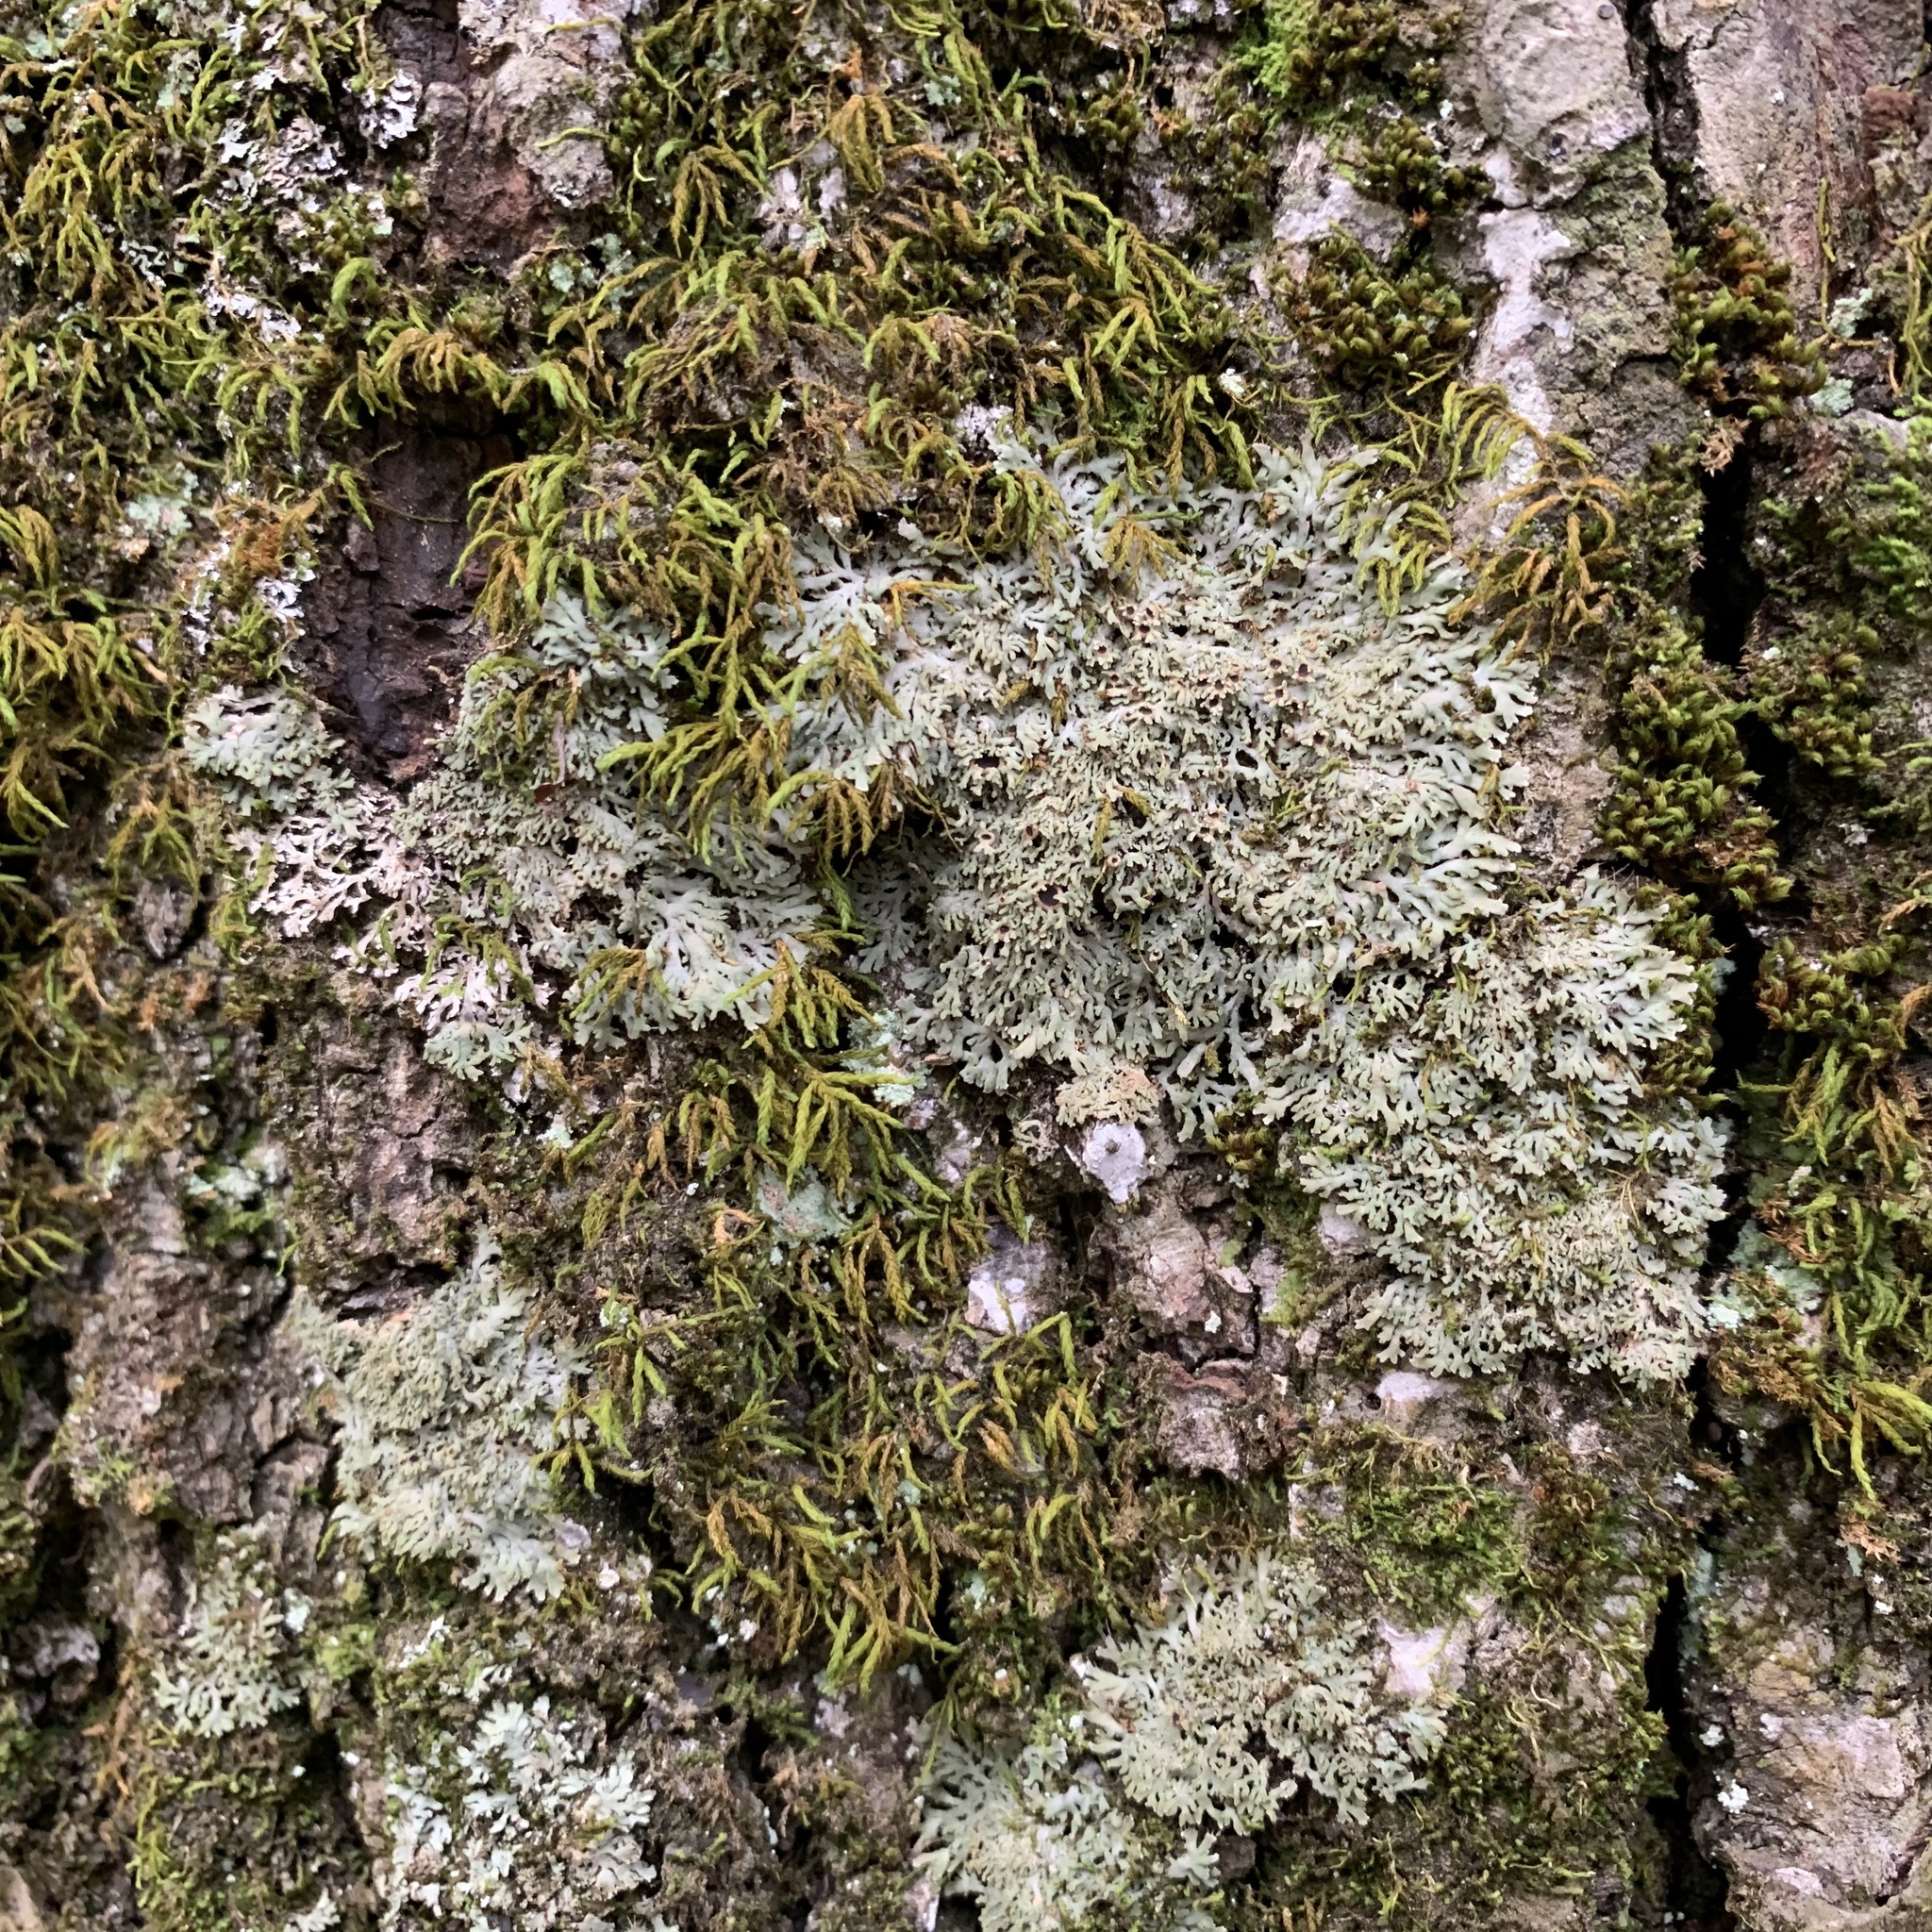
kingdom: Fungi
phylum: Ascomycota
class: Lecanoromycetes
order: Caliciales
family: Physciaceae
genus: Kurokawia
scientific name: Kurokawia palmulata
